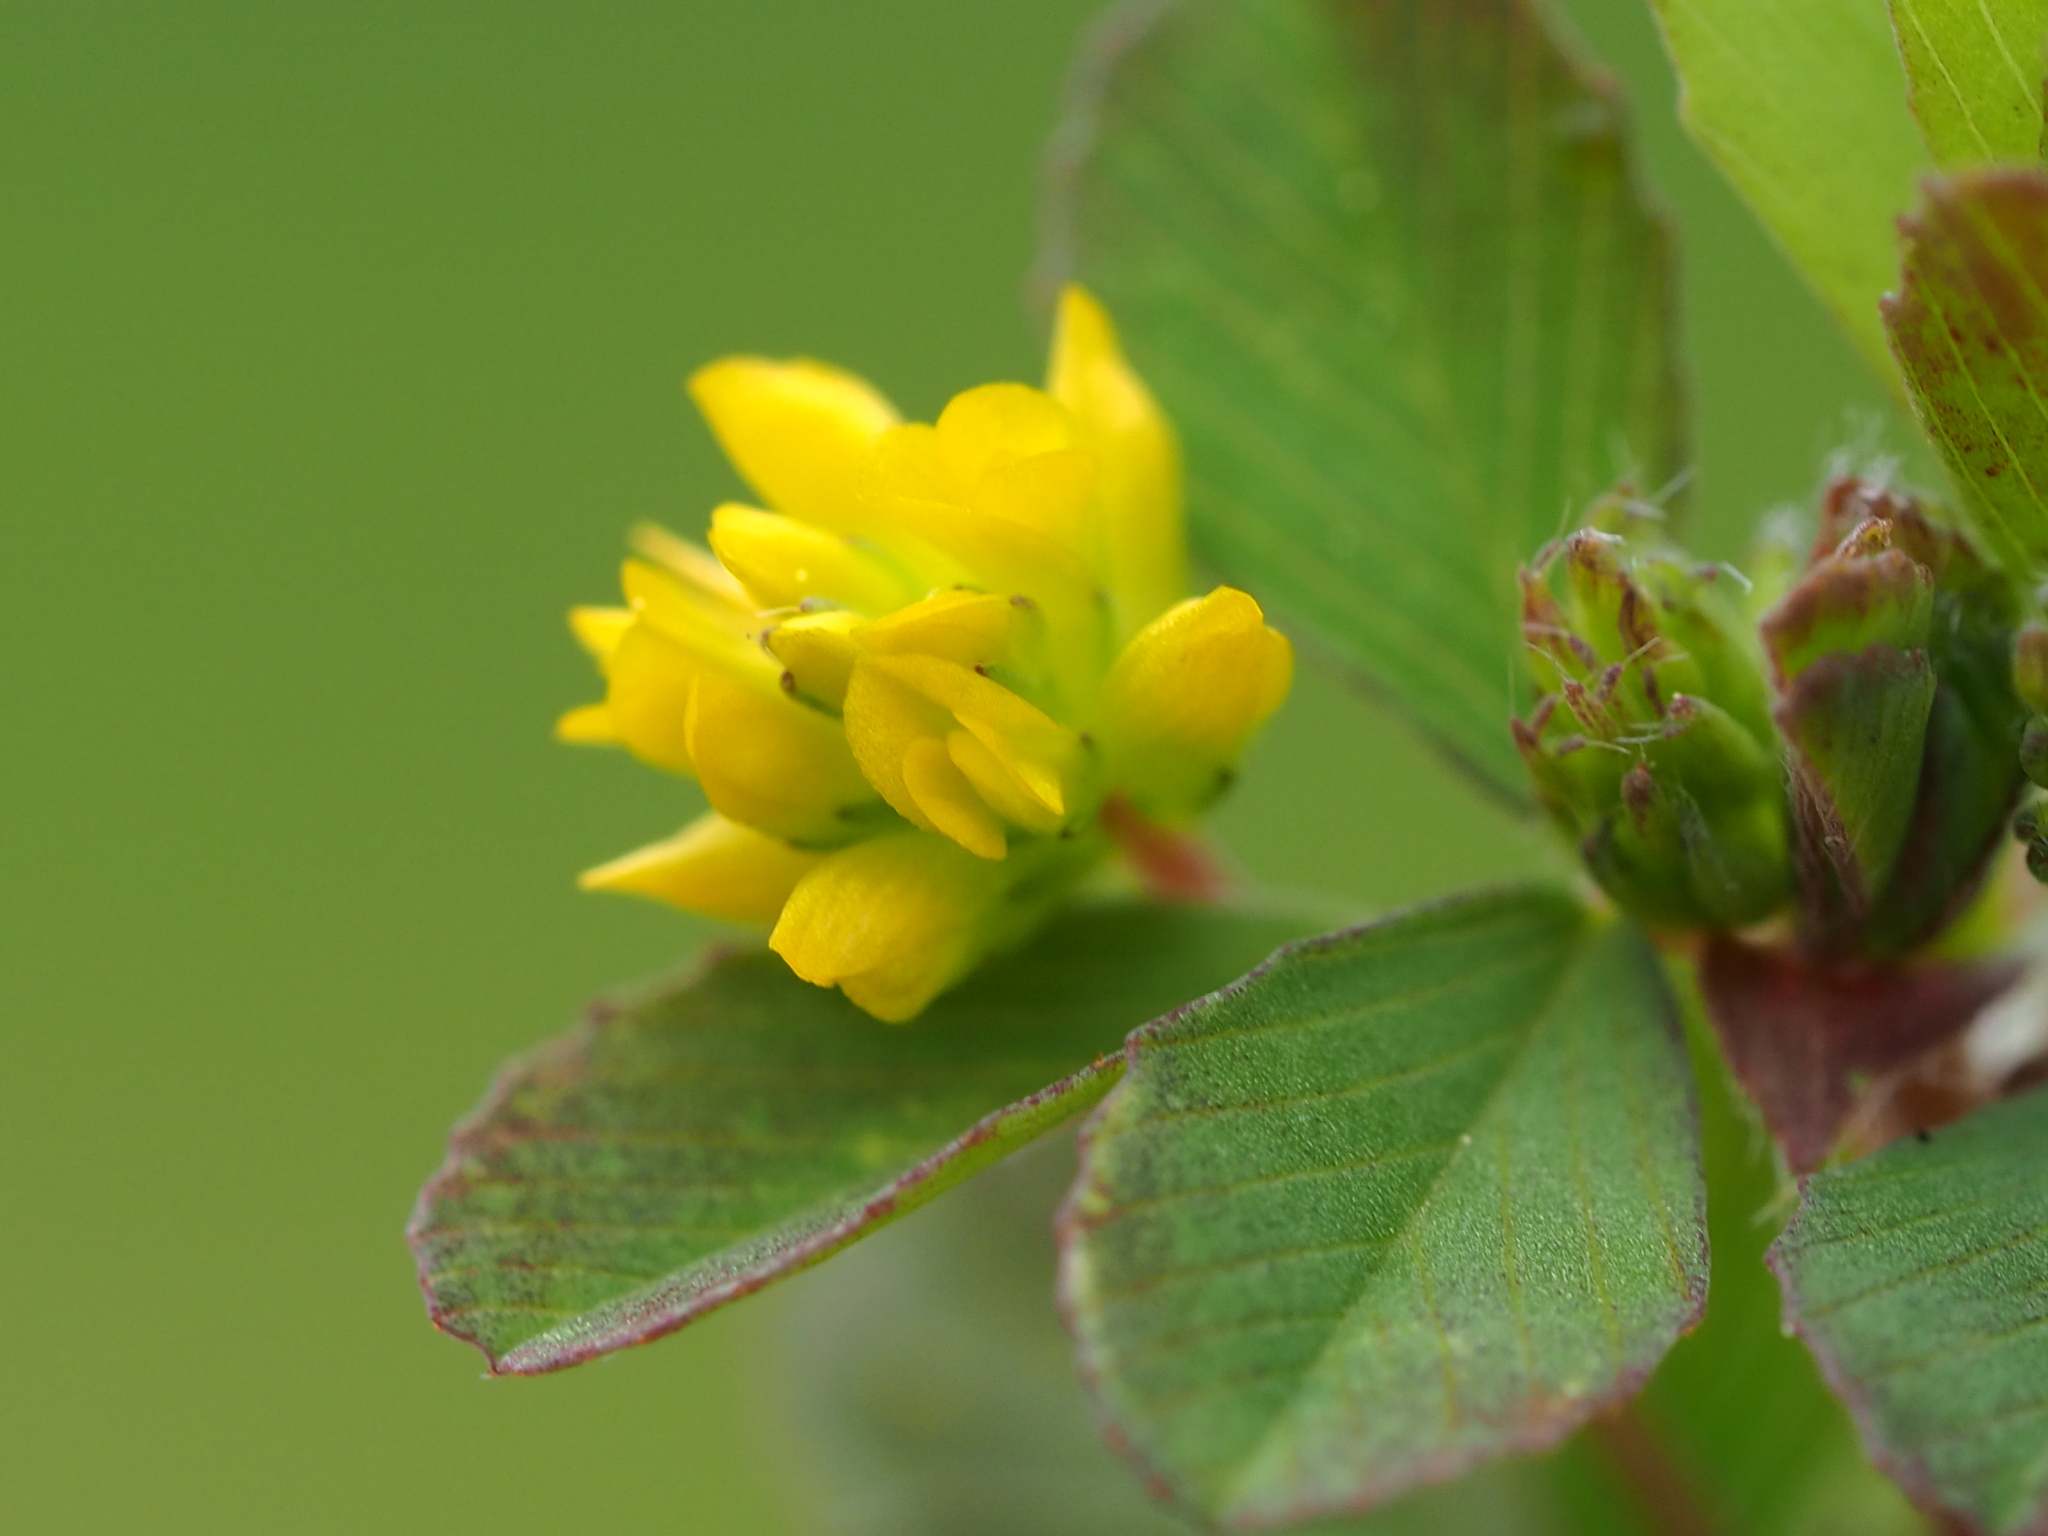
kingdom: Plantae
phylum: Tracheophyta
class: Magnoliopsida
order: Fabales
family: Fabaceae
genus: Trifolium
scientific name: Trifolium dubium
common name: Suckling clover
